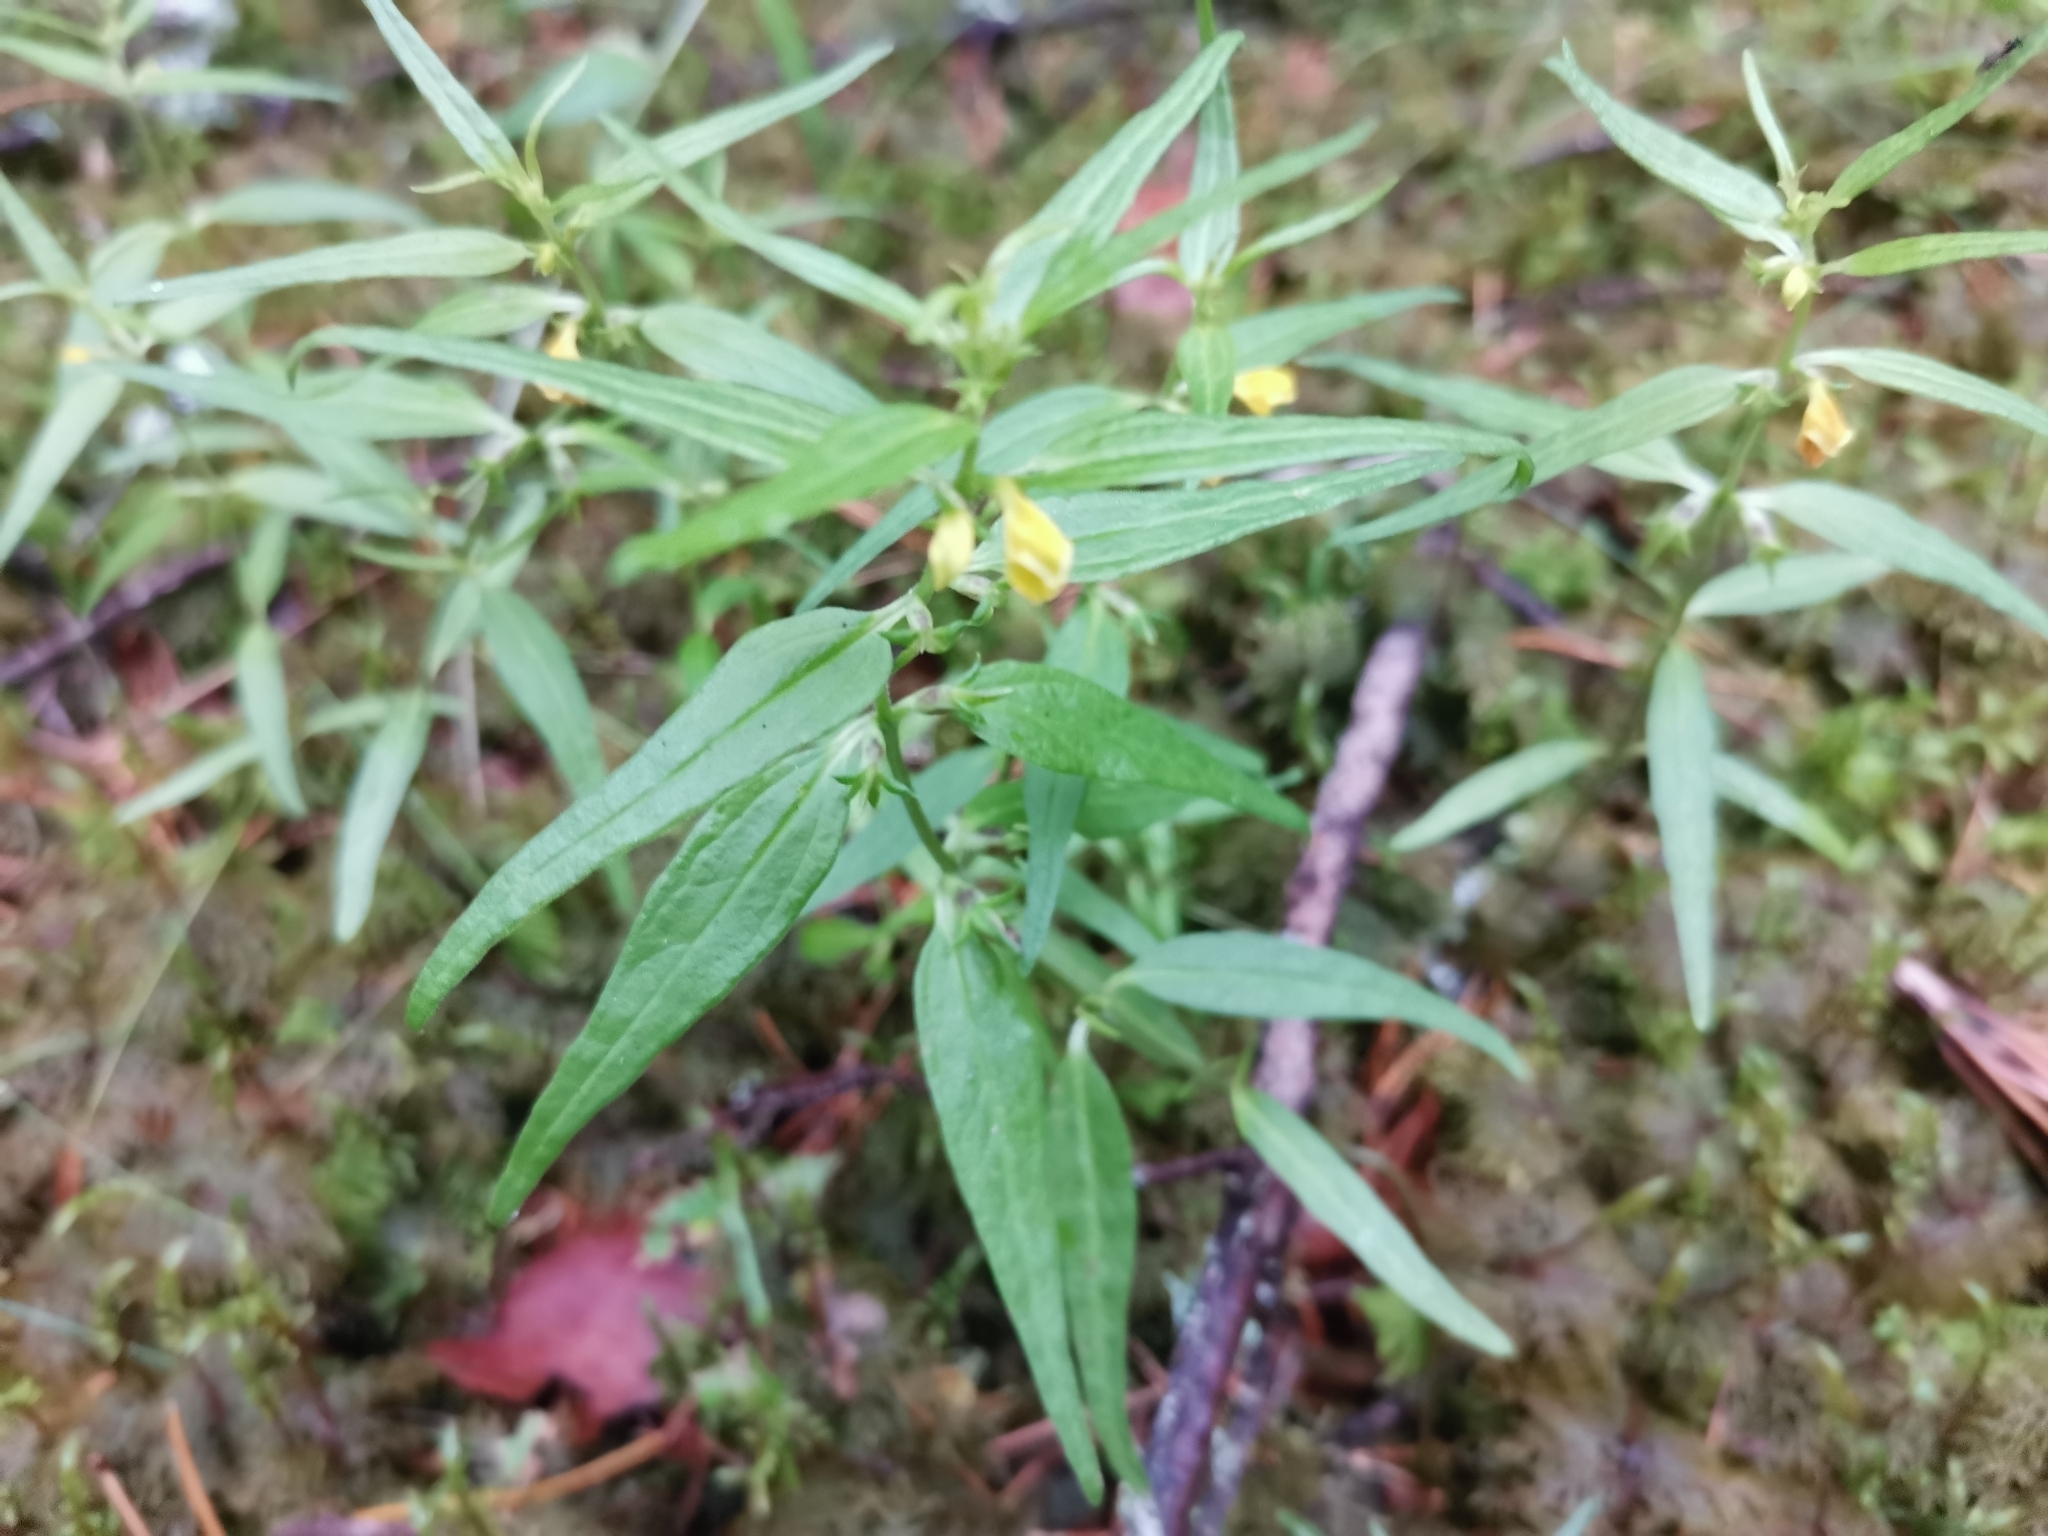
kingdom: Plantae
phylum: Tracheophyta
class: Magnoliopsida
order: Lamiales
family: Orobanchaceae
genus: Melampyrum
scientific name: Melampyrum sylvaticum
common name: Small cow-wheat
